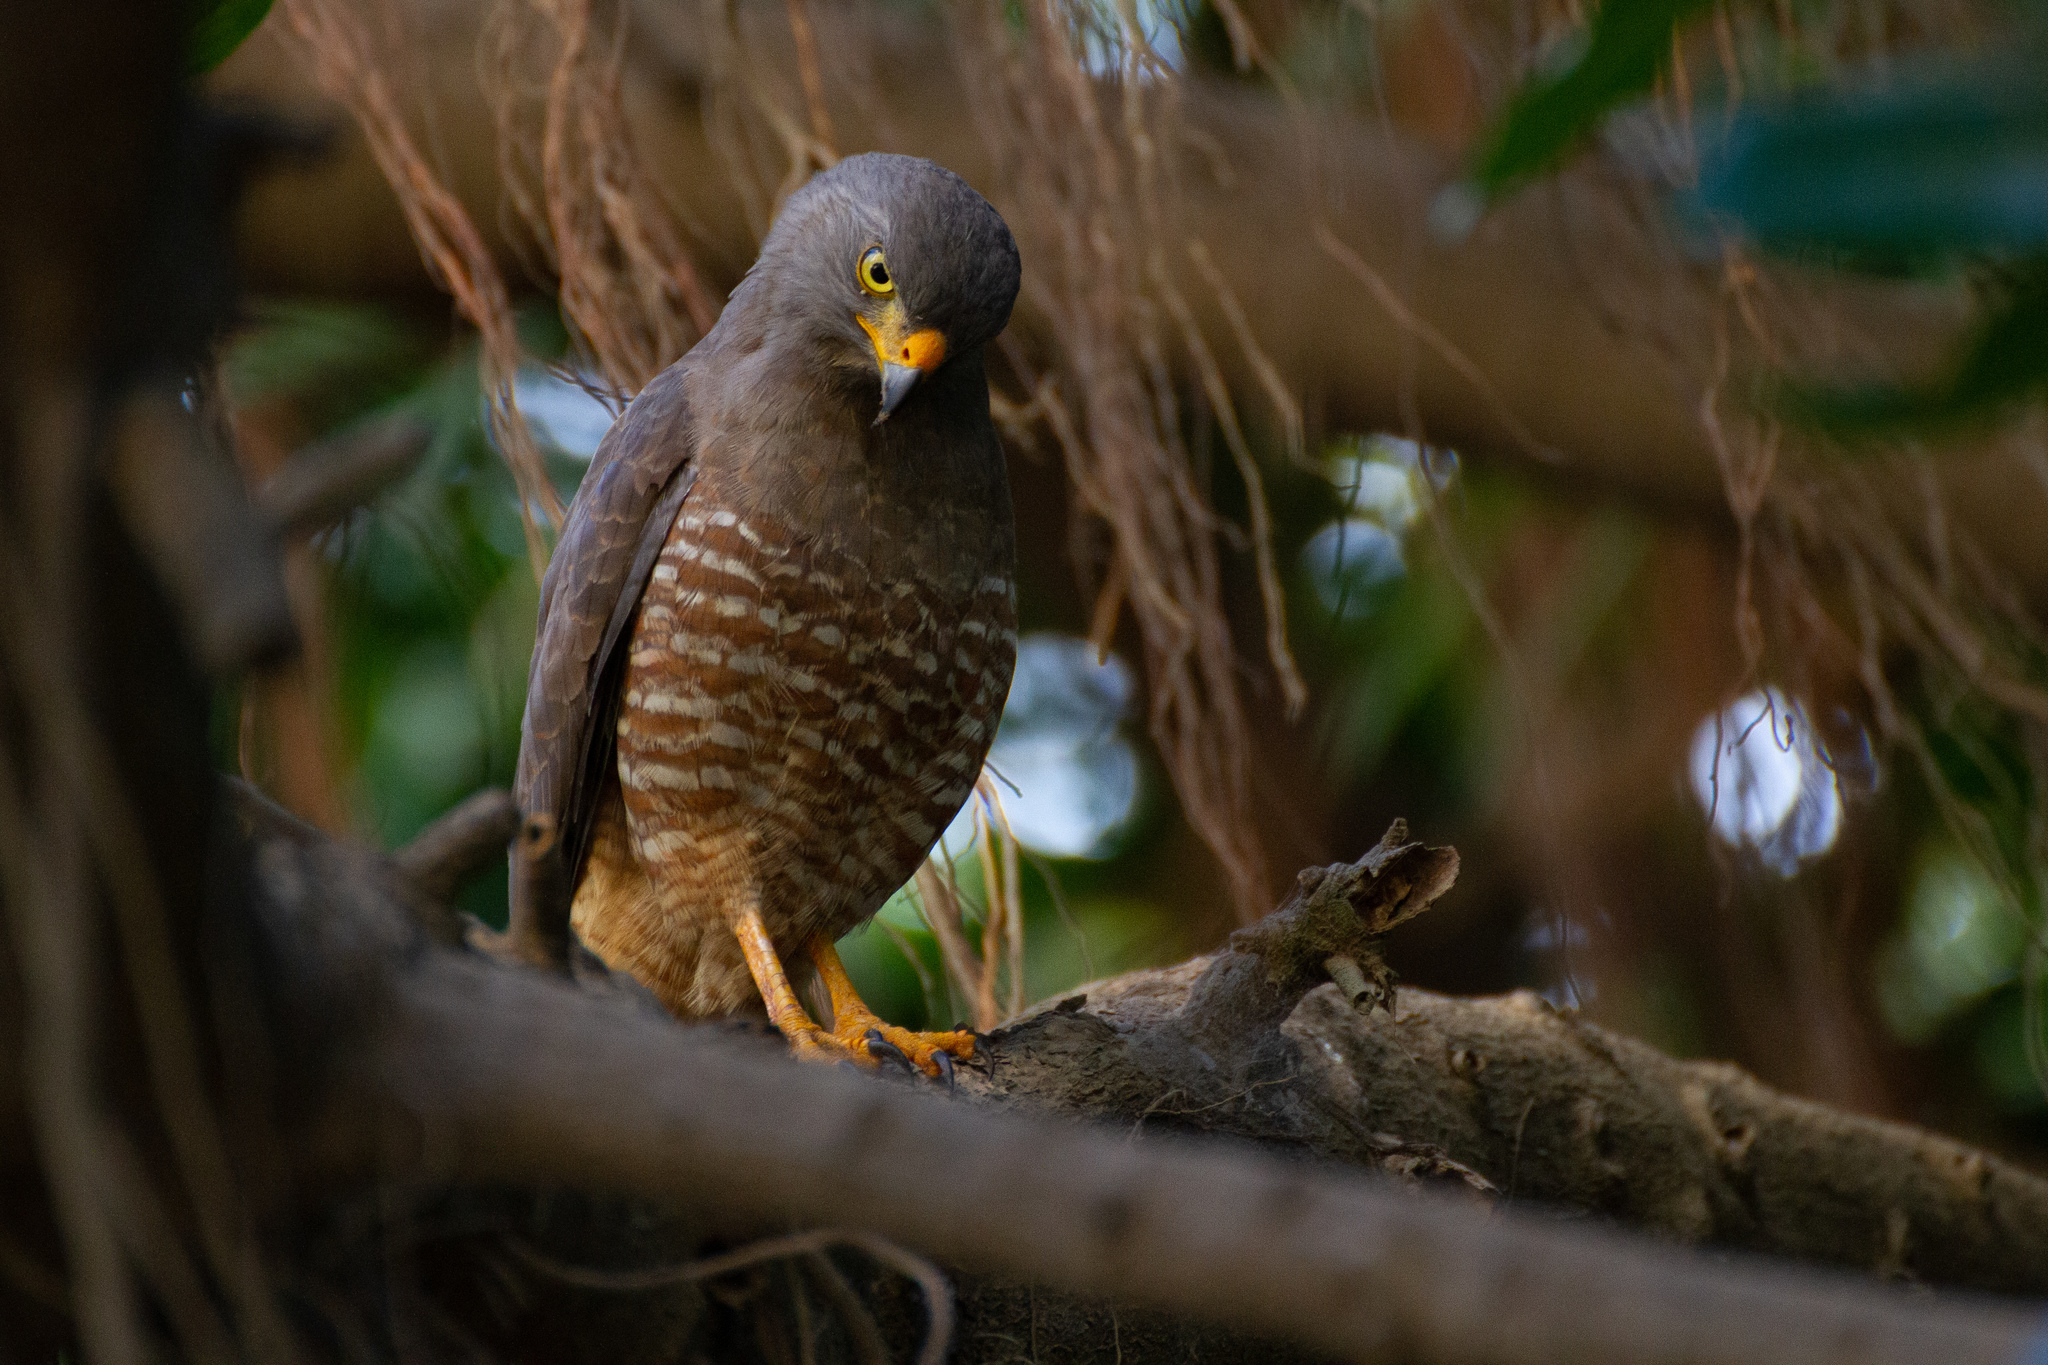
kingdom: Animalia
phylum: Chordata
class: Aves
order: Accipitriformes
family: Accipitridae
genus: Rupornis
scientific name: Rupornis magnirostris
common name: Roadside hawk
